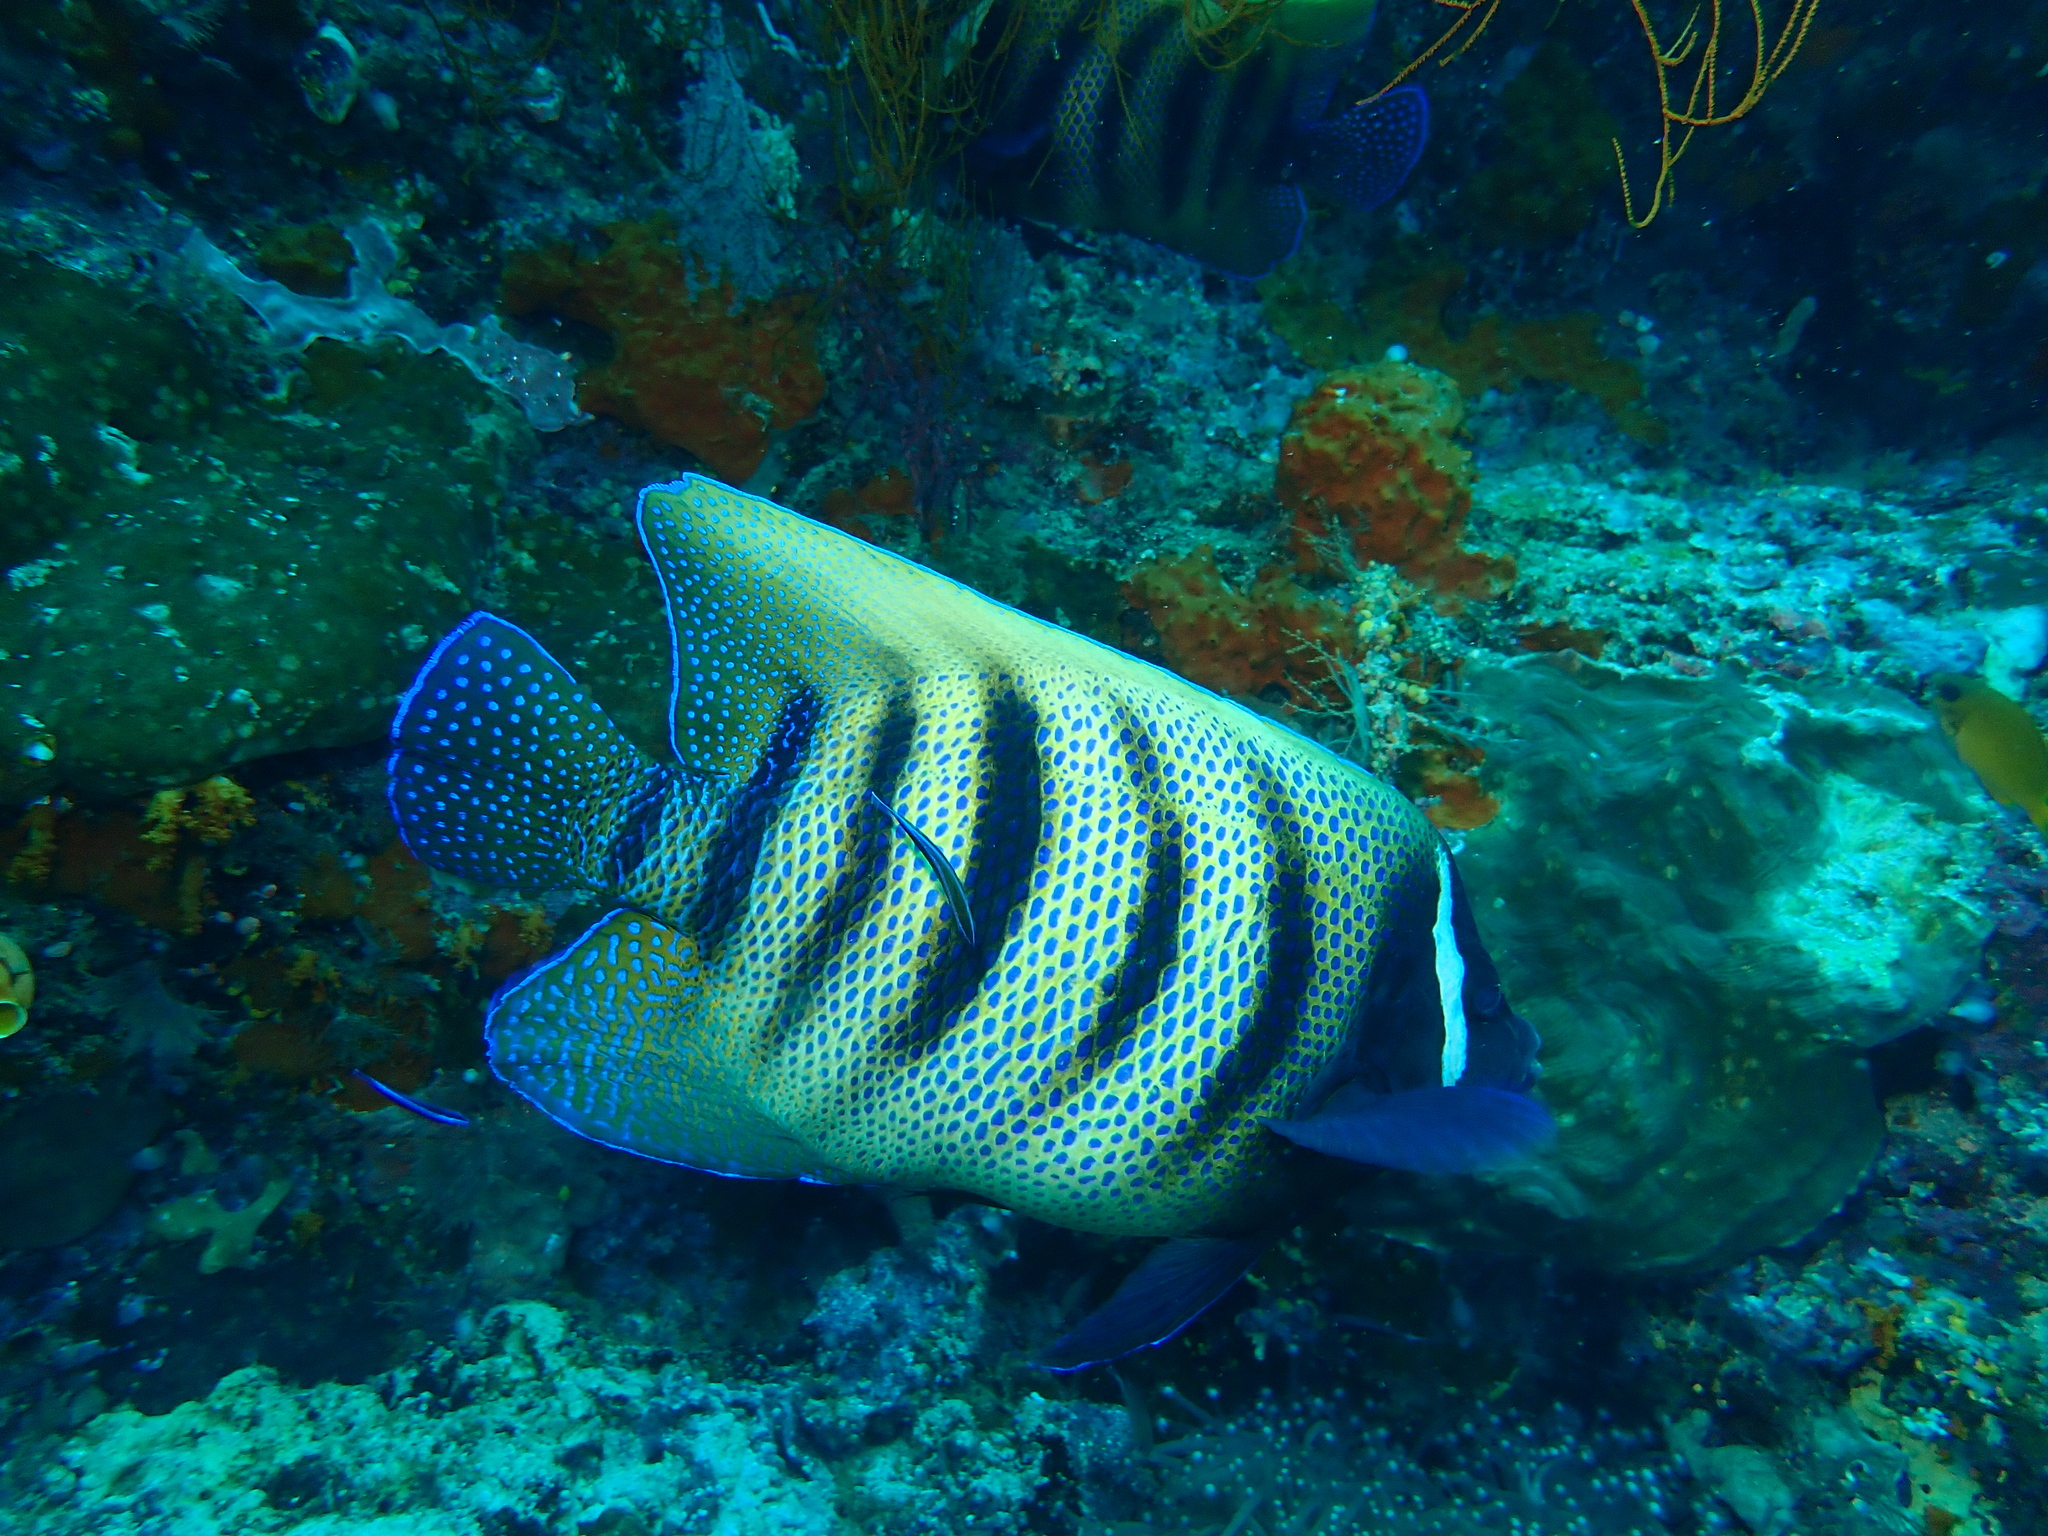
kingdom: Animalia
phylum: Chordata
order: Perciformes
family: Pomacanthidae
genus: Pomacanthus
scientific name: Pomacanthus sexstriatus
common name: Six-banded angelfish
